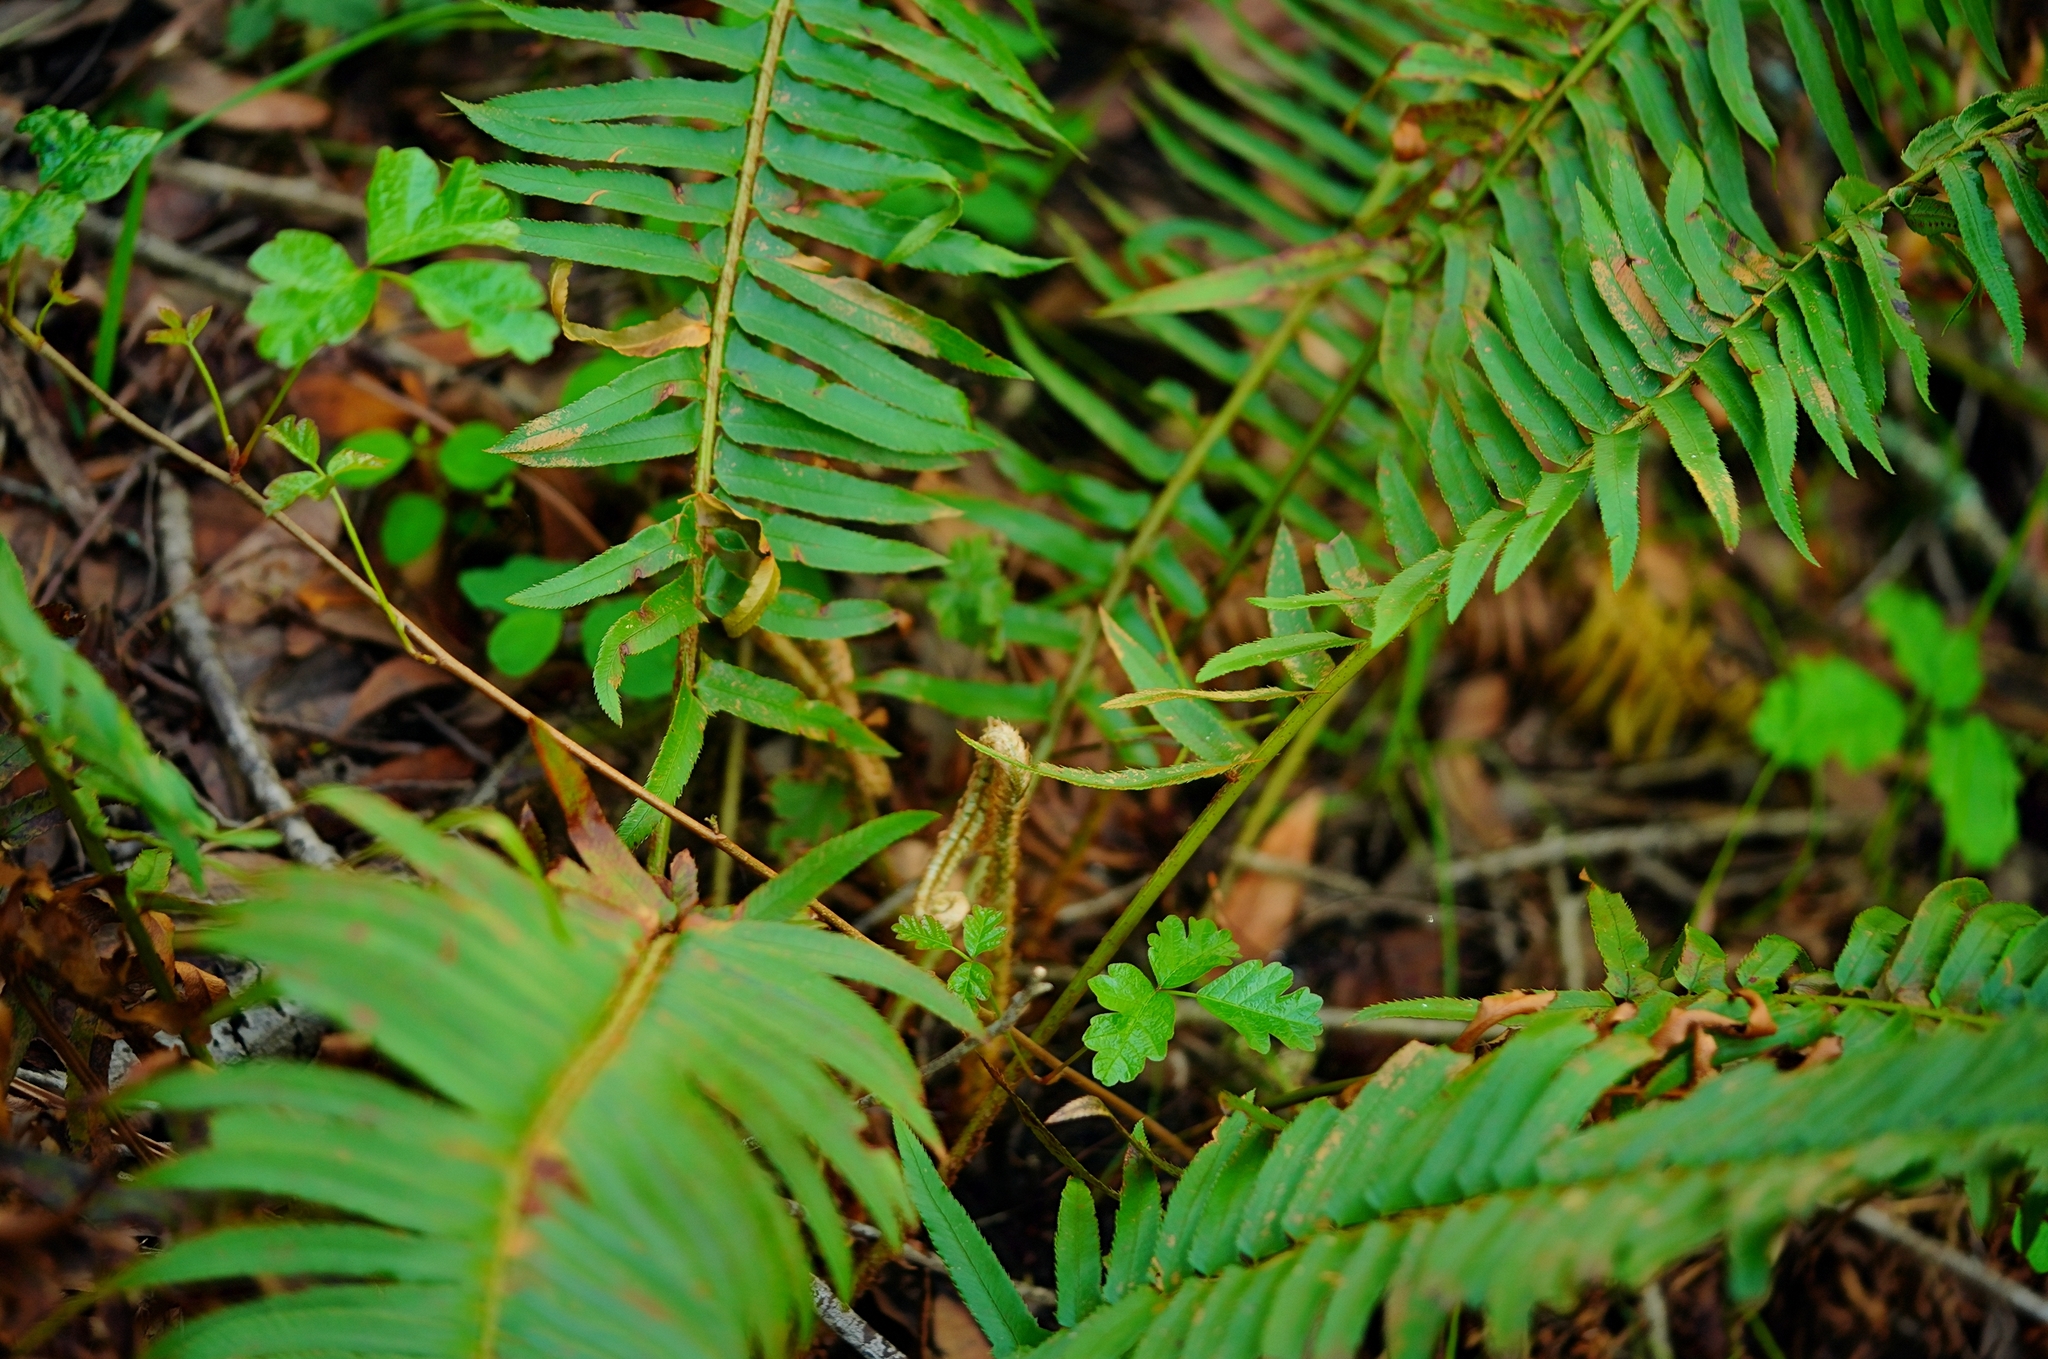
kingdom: Plantae
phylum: Tracheophyta
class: Polypodiopsida
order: Polypodiales
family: Dryopteridaceae
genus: Polystichum
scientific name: Polystichum munitum
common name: Western sword-fern
